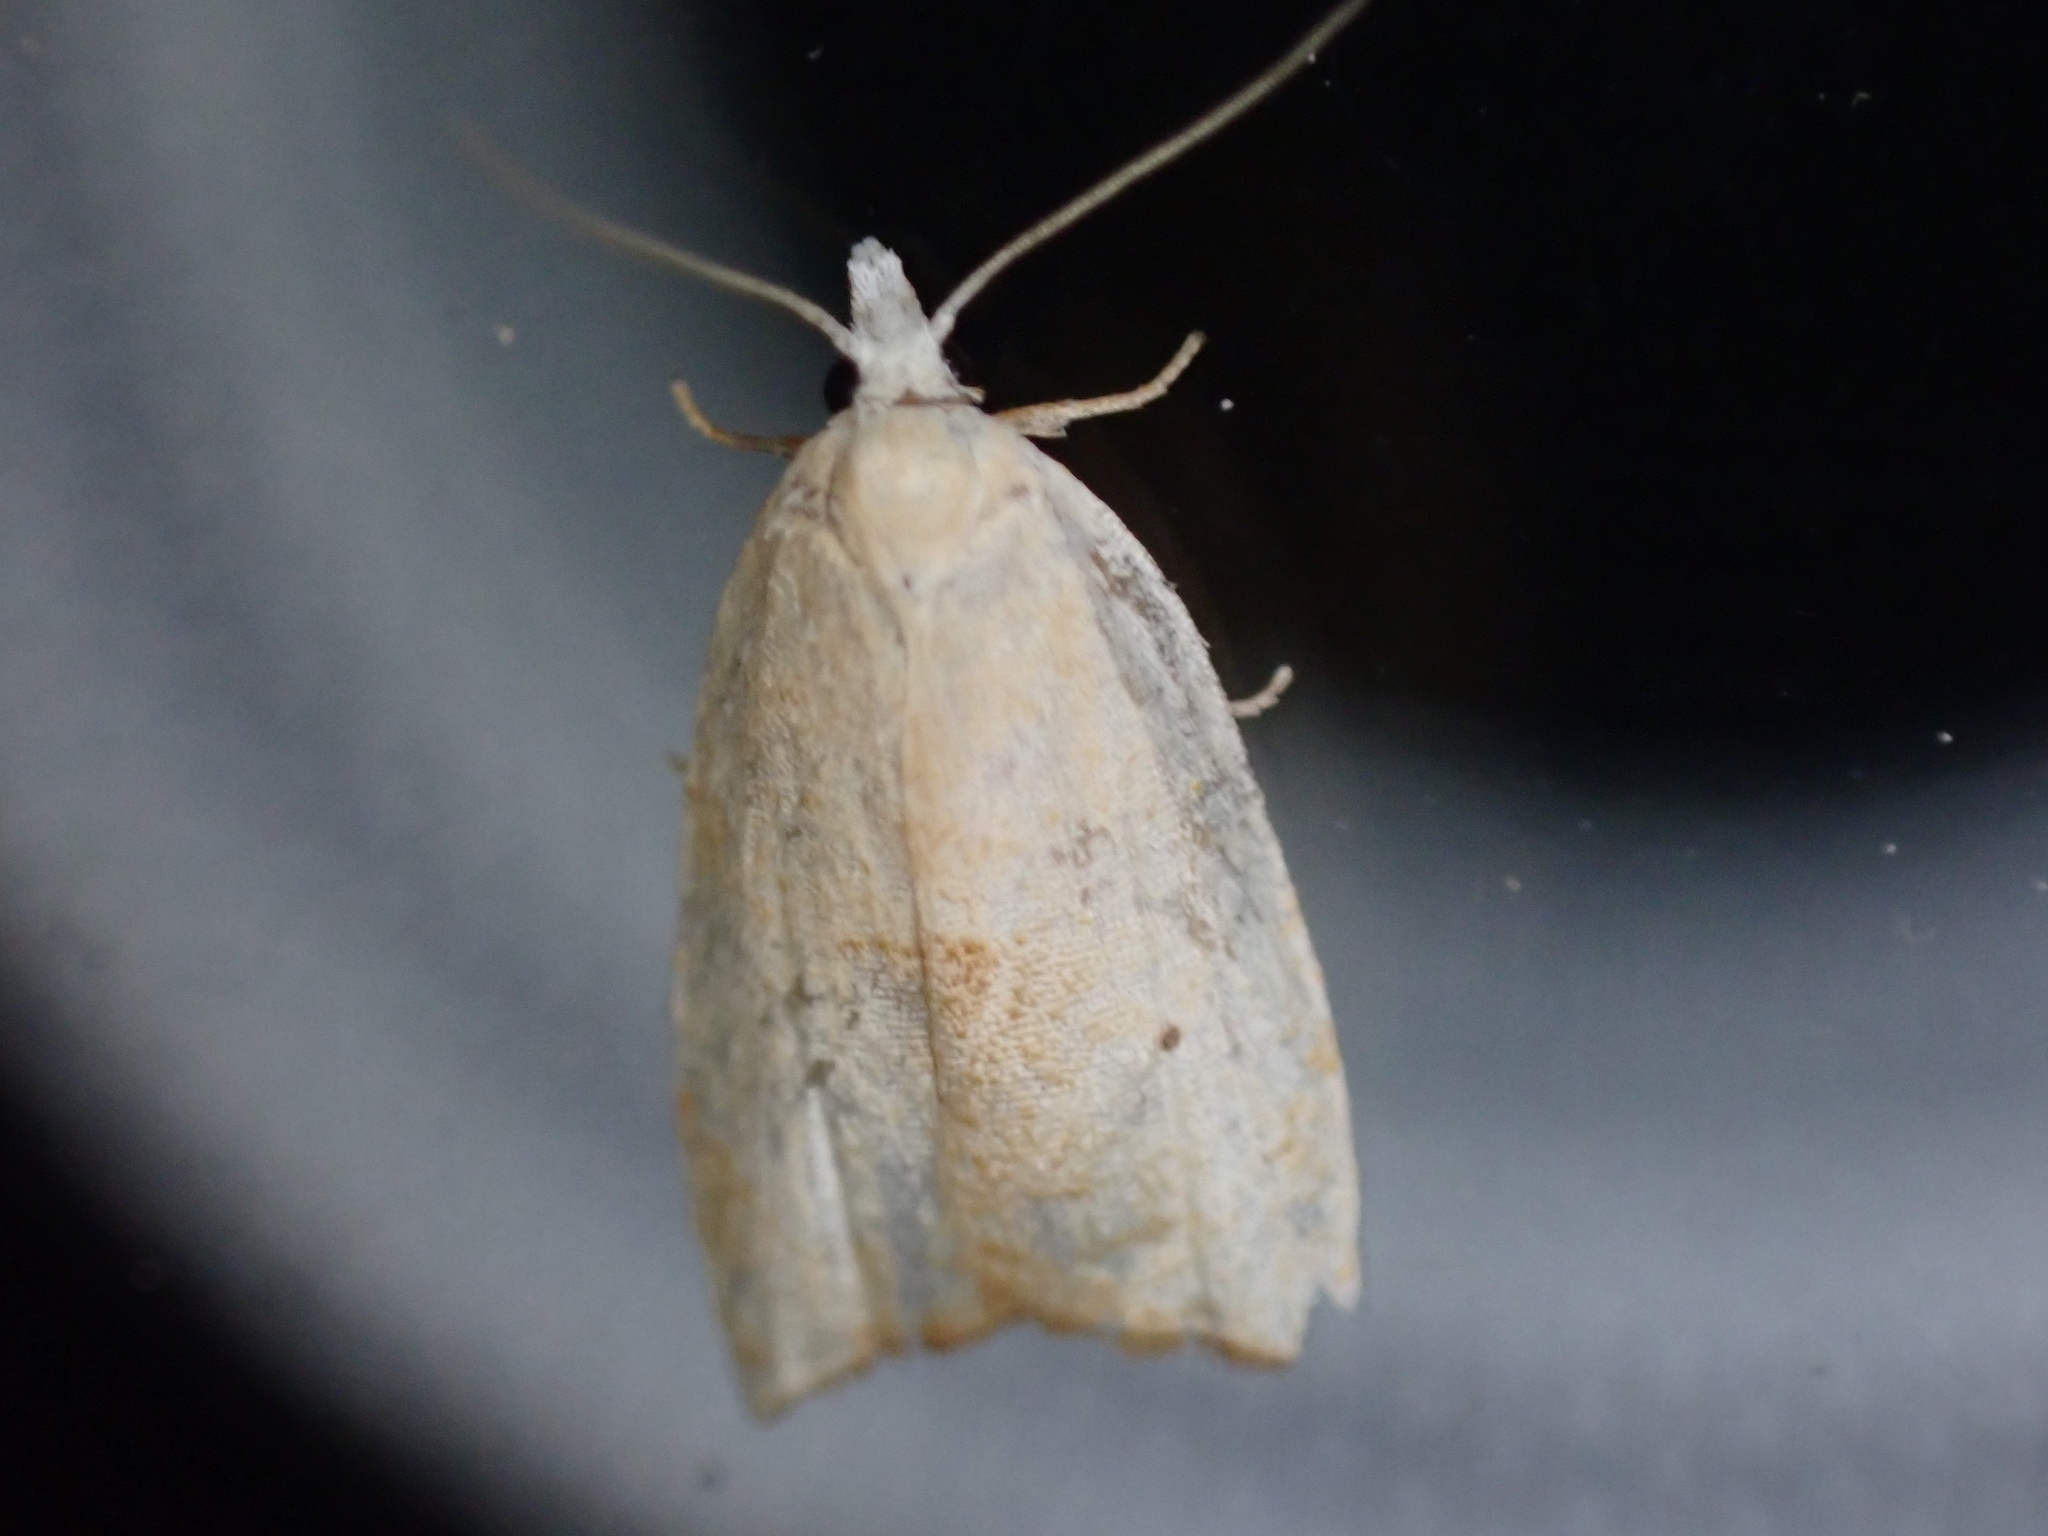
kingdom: Animalia
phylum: Arthropoda
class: Insecta
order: Lepidoptera
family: Tortricidae
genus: Coelostathma
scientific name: Coelostathma discopunctana
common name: Batman moth
